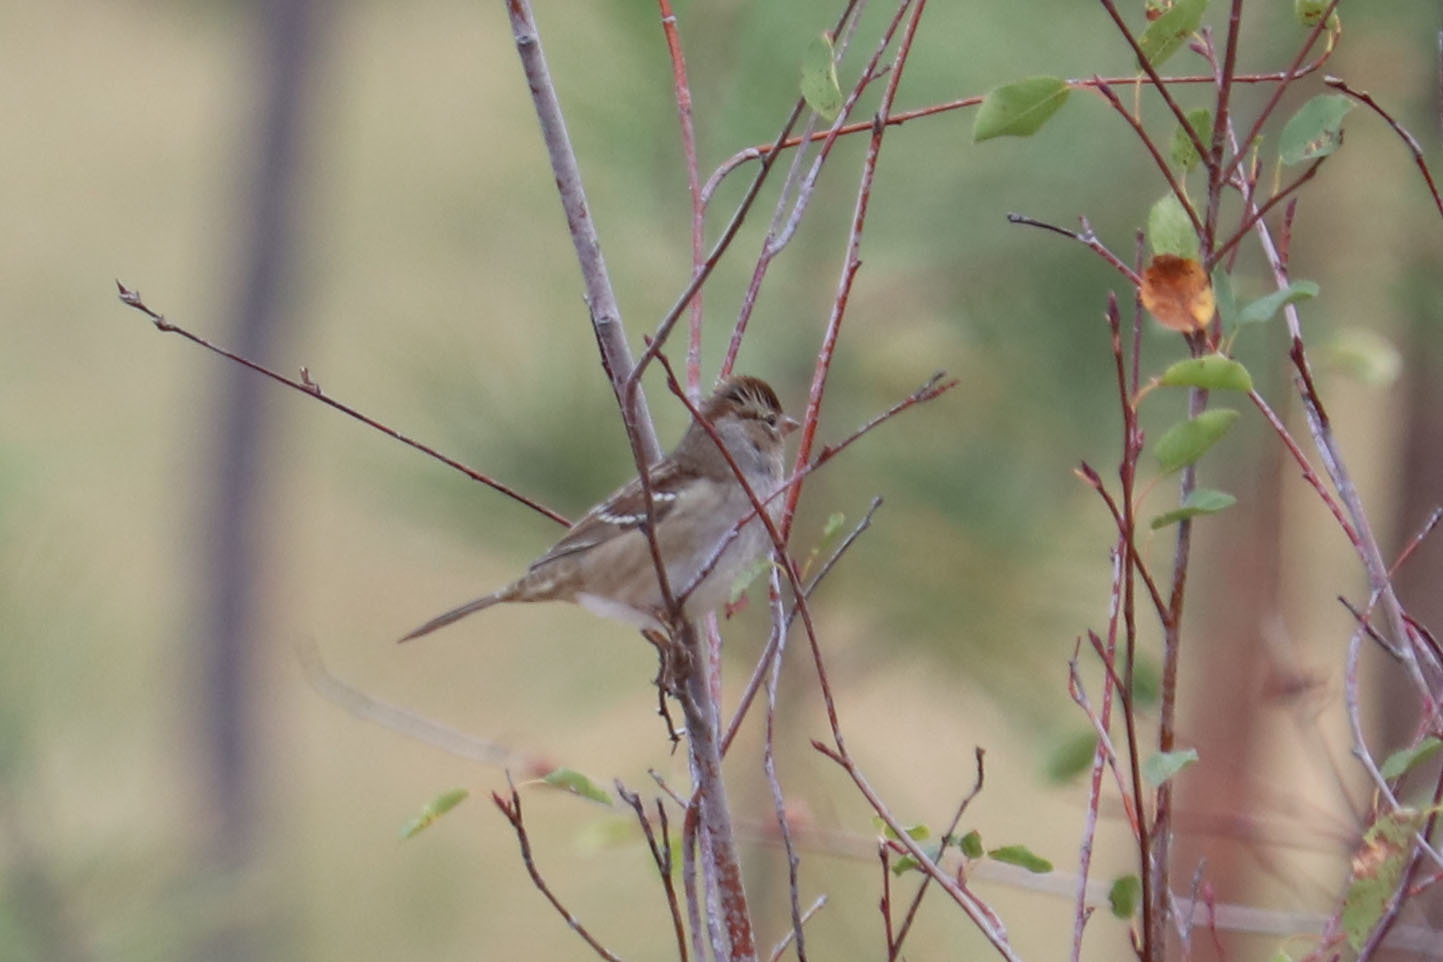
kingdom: Animalia
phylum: Chordata
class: Aves
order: Passeriformes
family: Passerellidae
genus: Zonotrichia
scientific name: Zonotrichia leucophrys
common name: White-crowned sparrow
